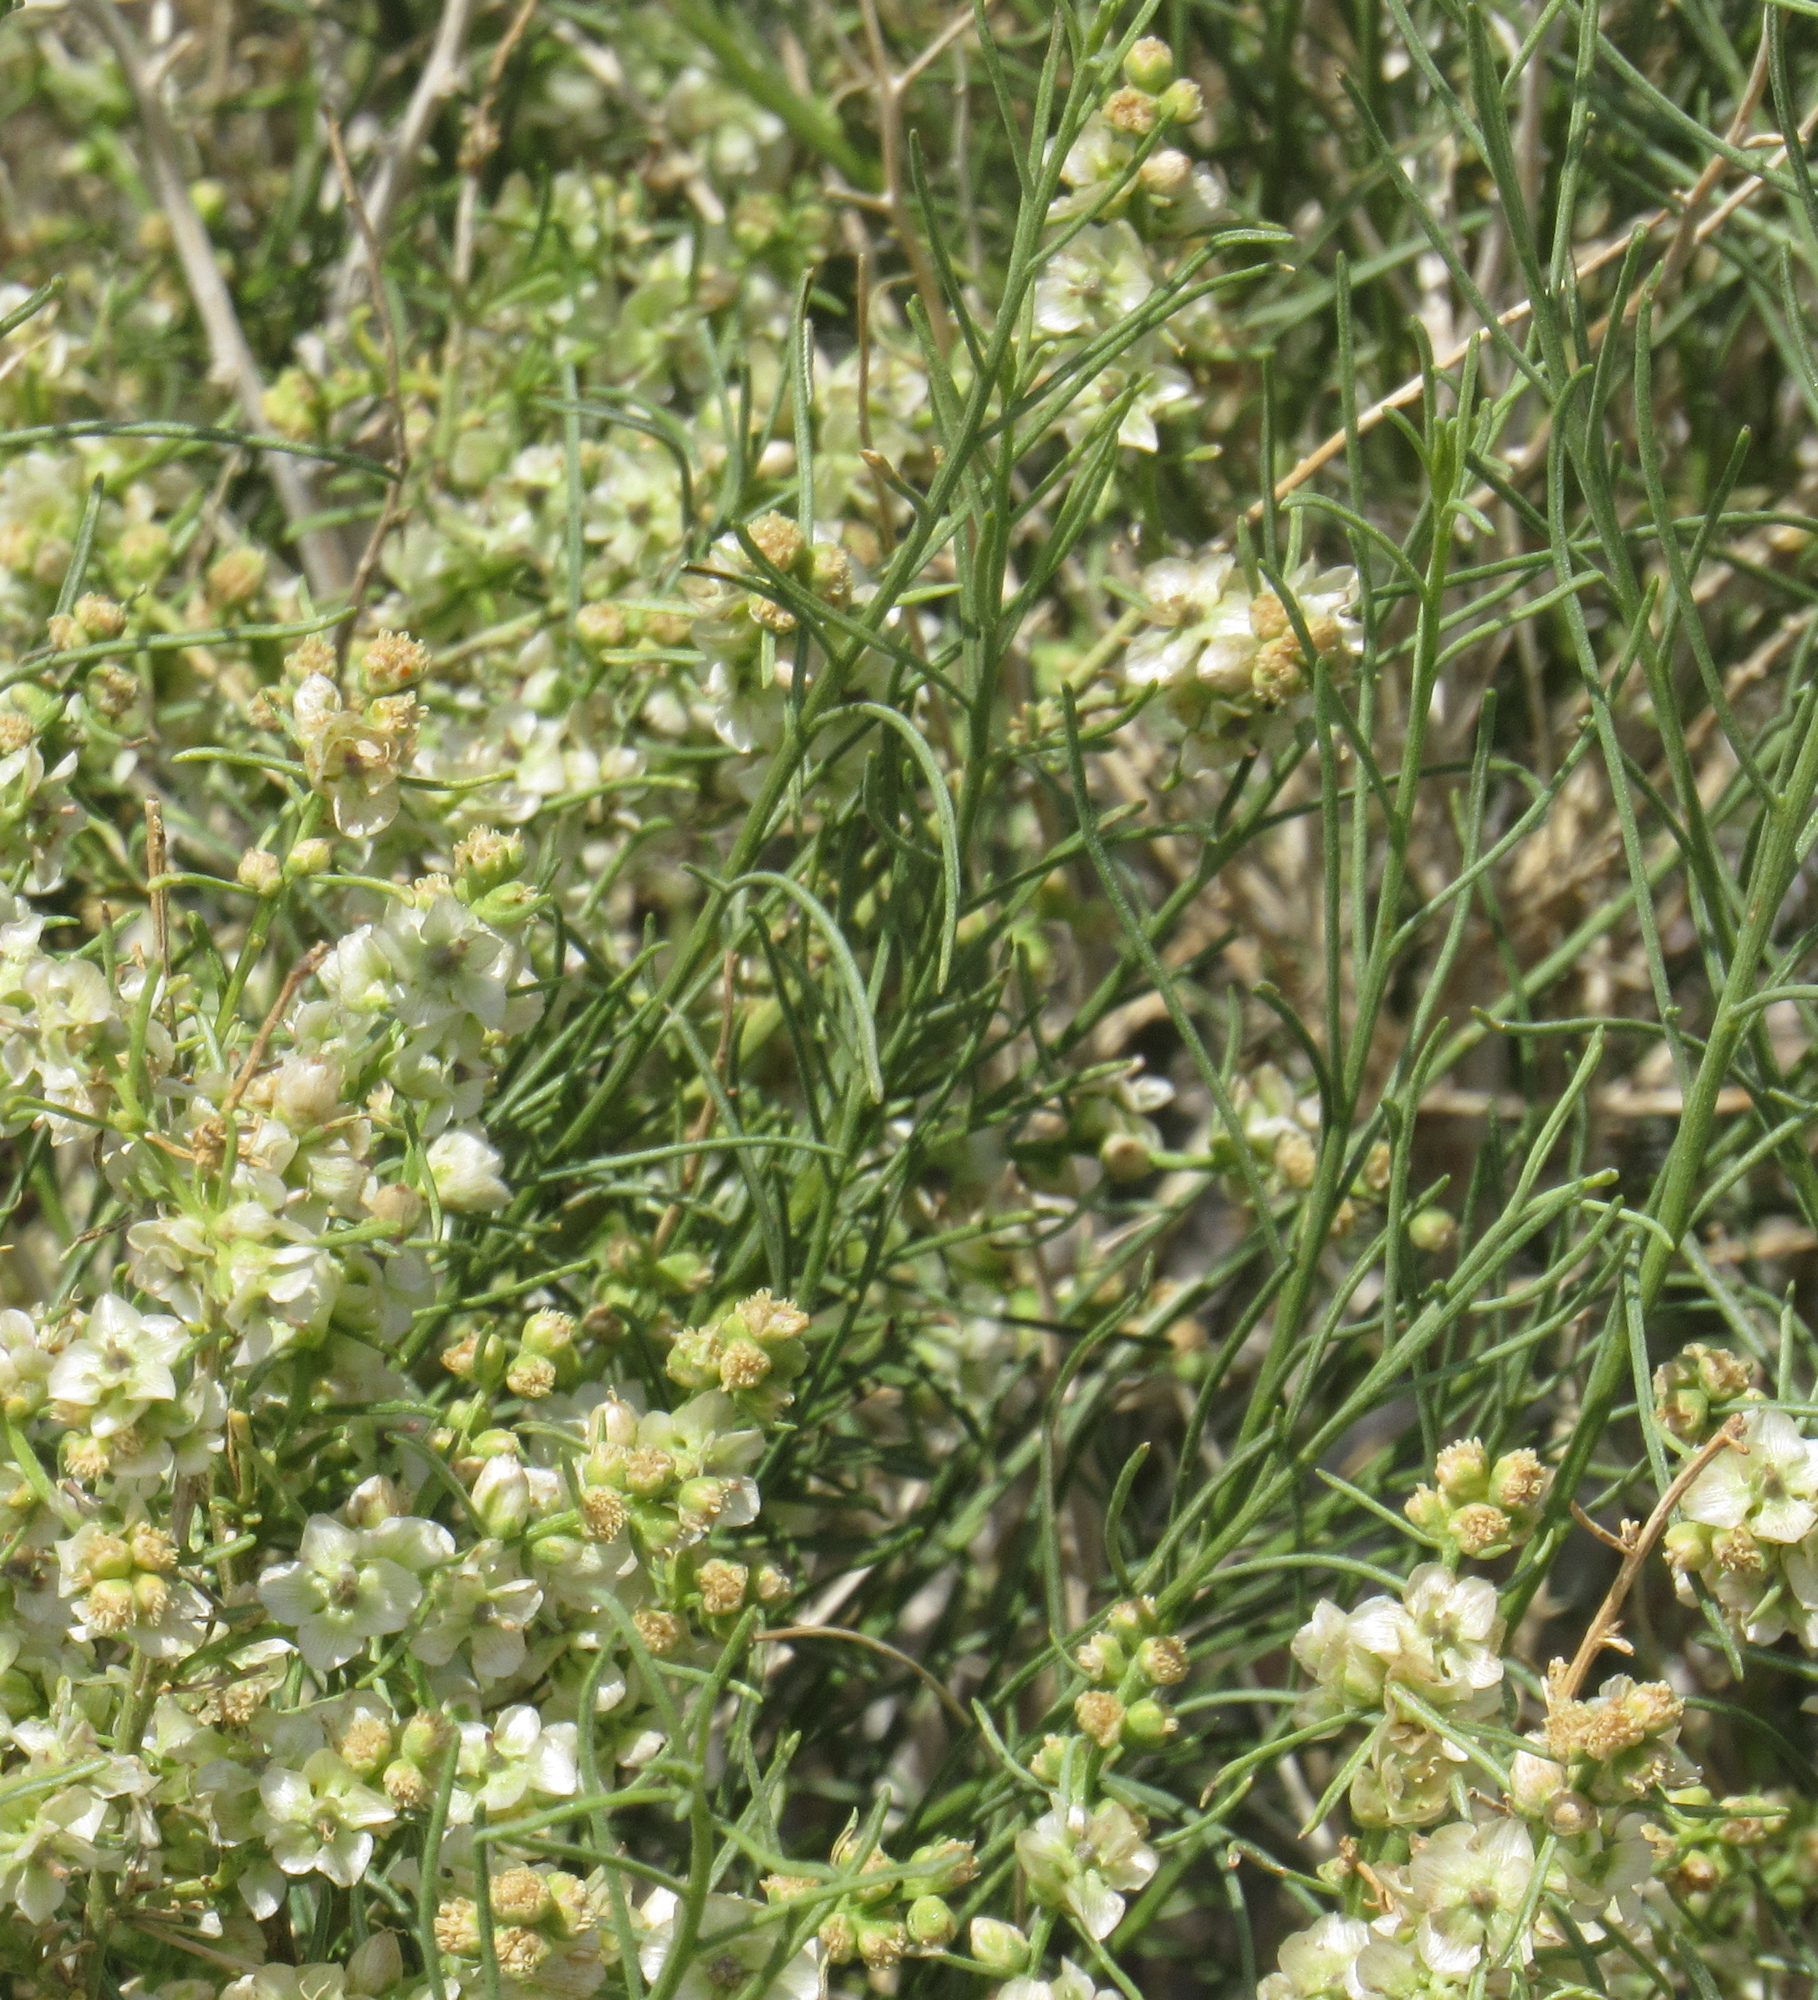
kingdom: Plantae
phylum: Tracheophyta
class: Magnoliopsida
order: Asterales
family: Asteraceae
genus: Ambrosia
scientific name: Ambrosia salsola
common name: Burrobrush
